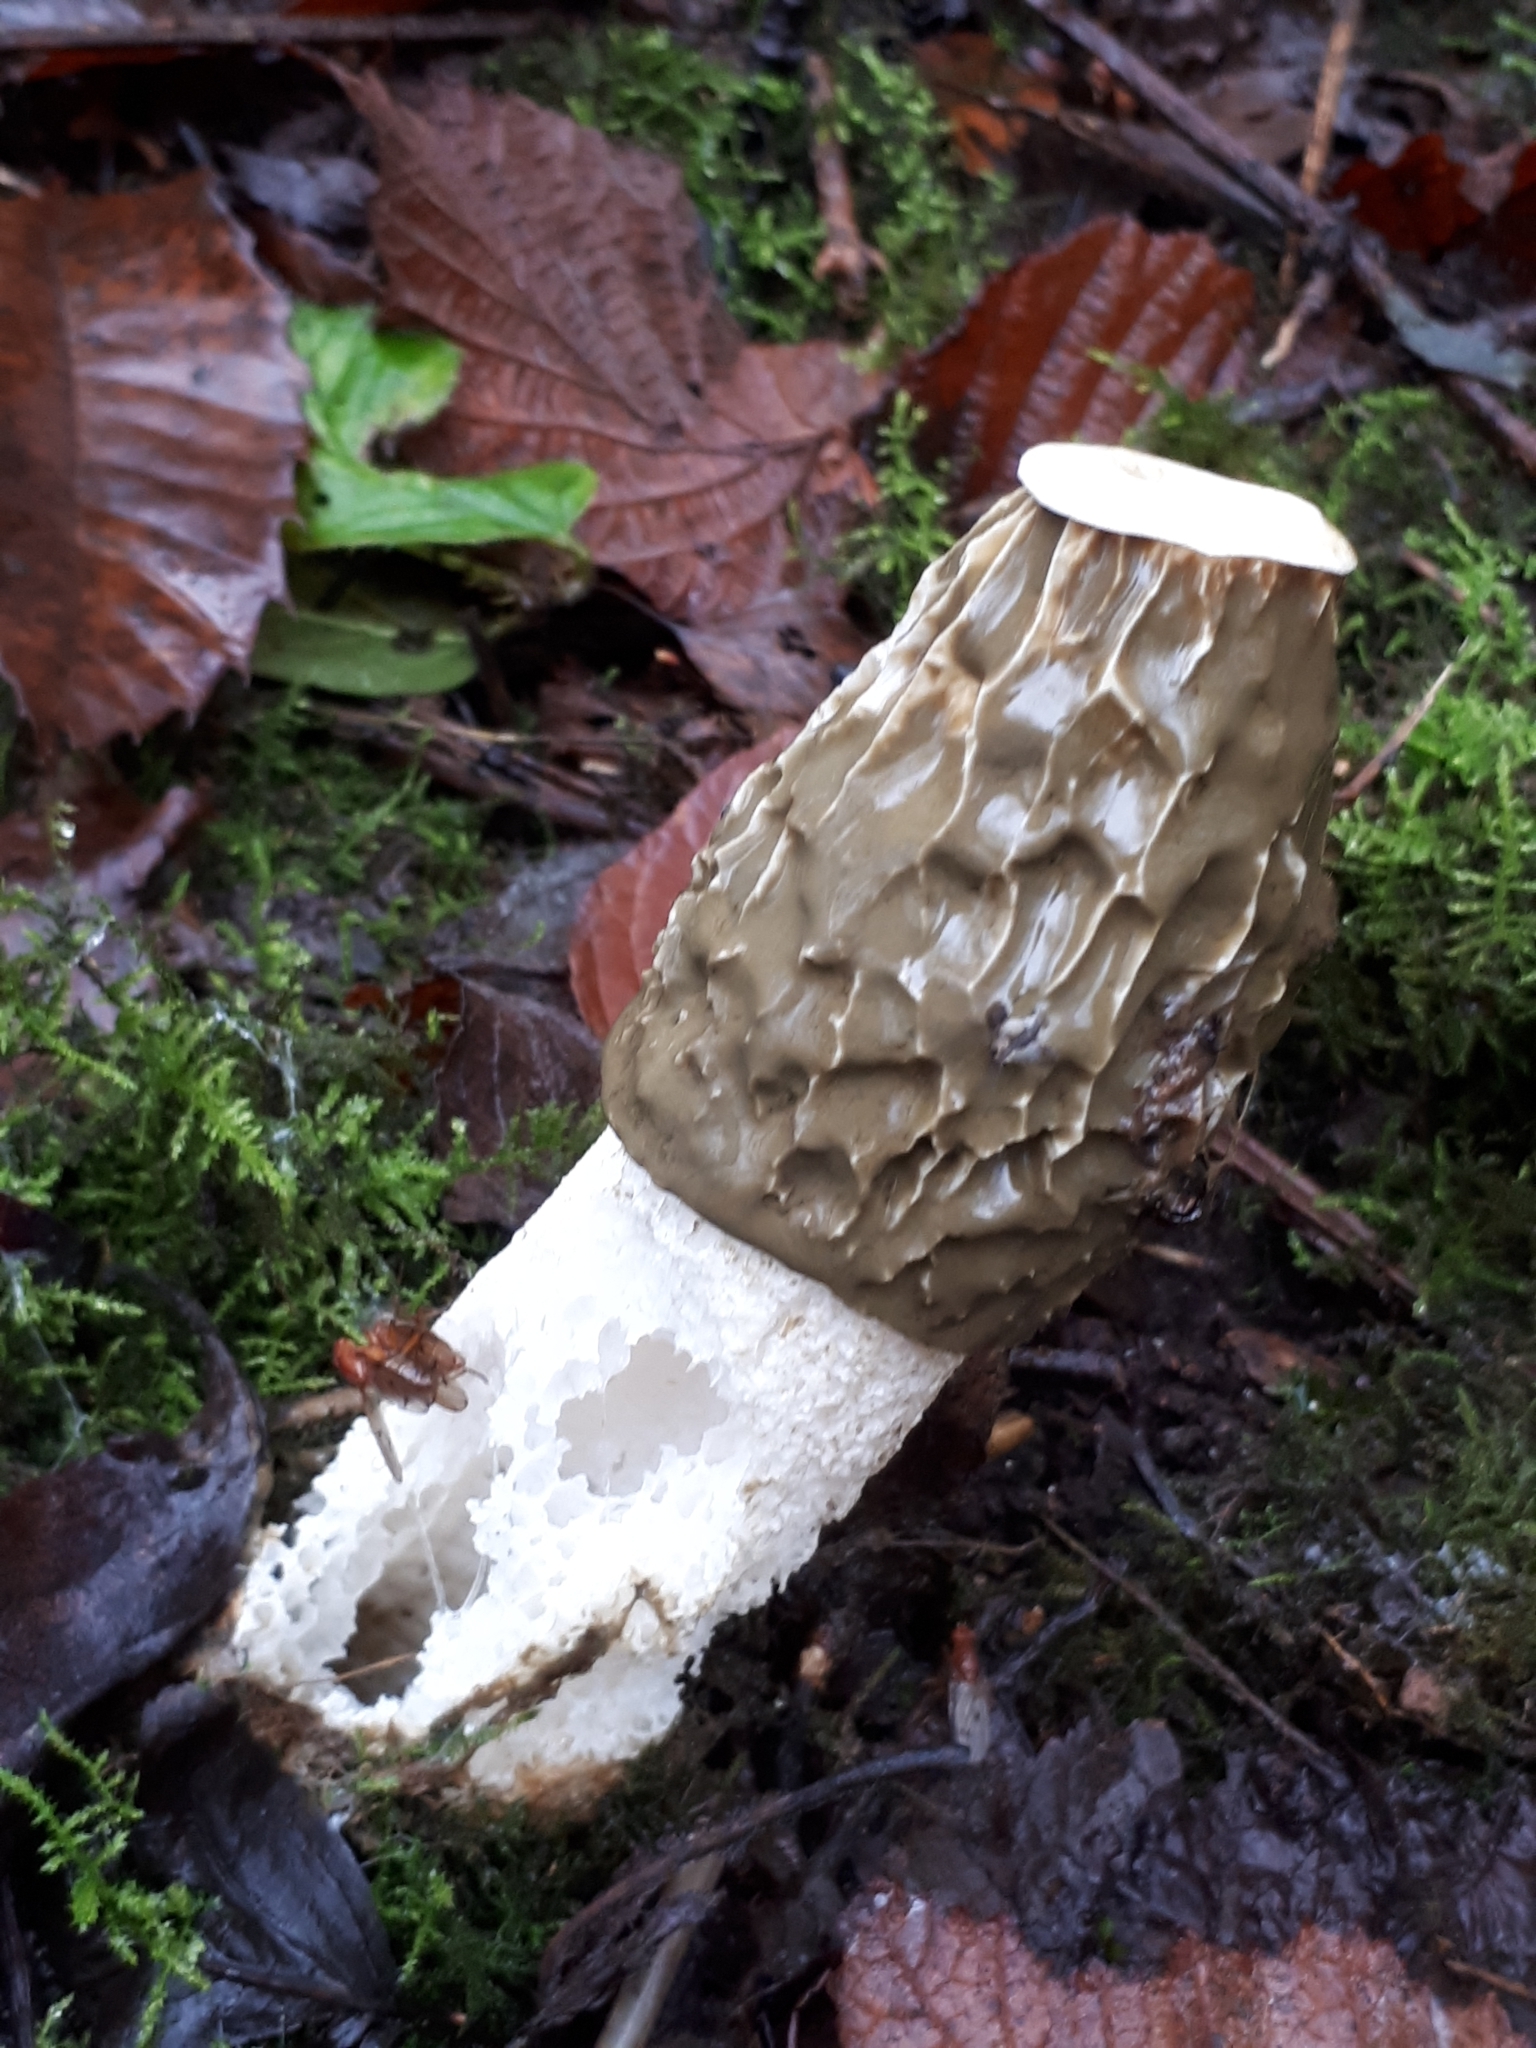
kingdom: Fungi
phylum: Basidiomycota
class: Agaricomycetes
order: Phallales
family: Phallaceae
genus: Phallus
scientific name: Phallus impudicus
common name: Common stinkhorn
